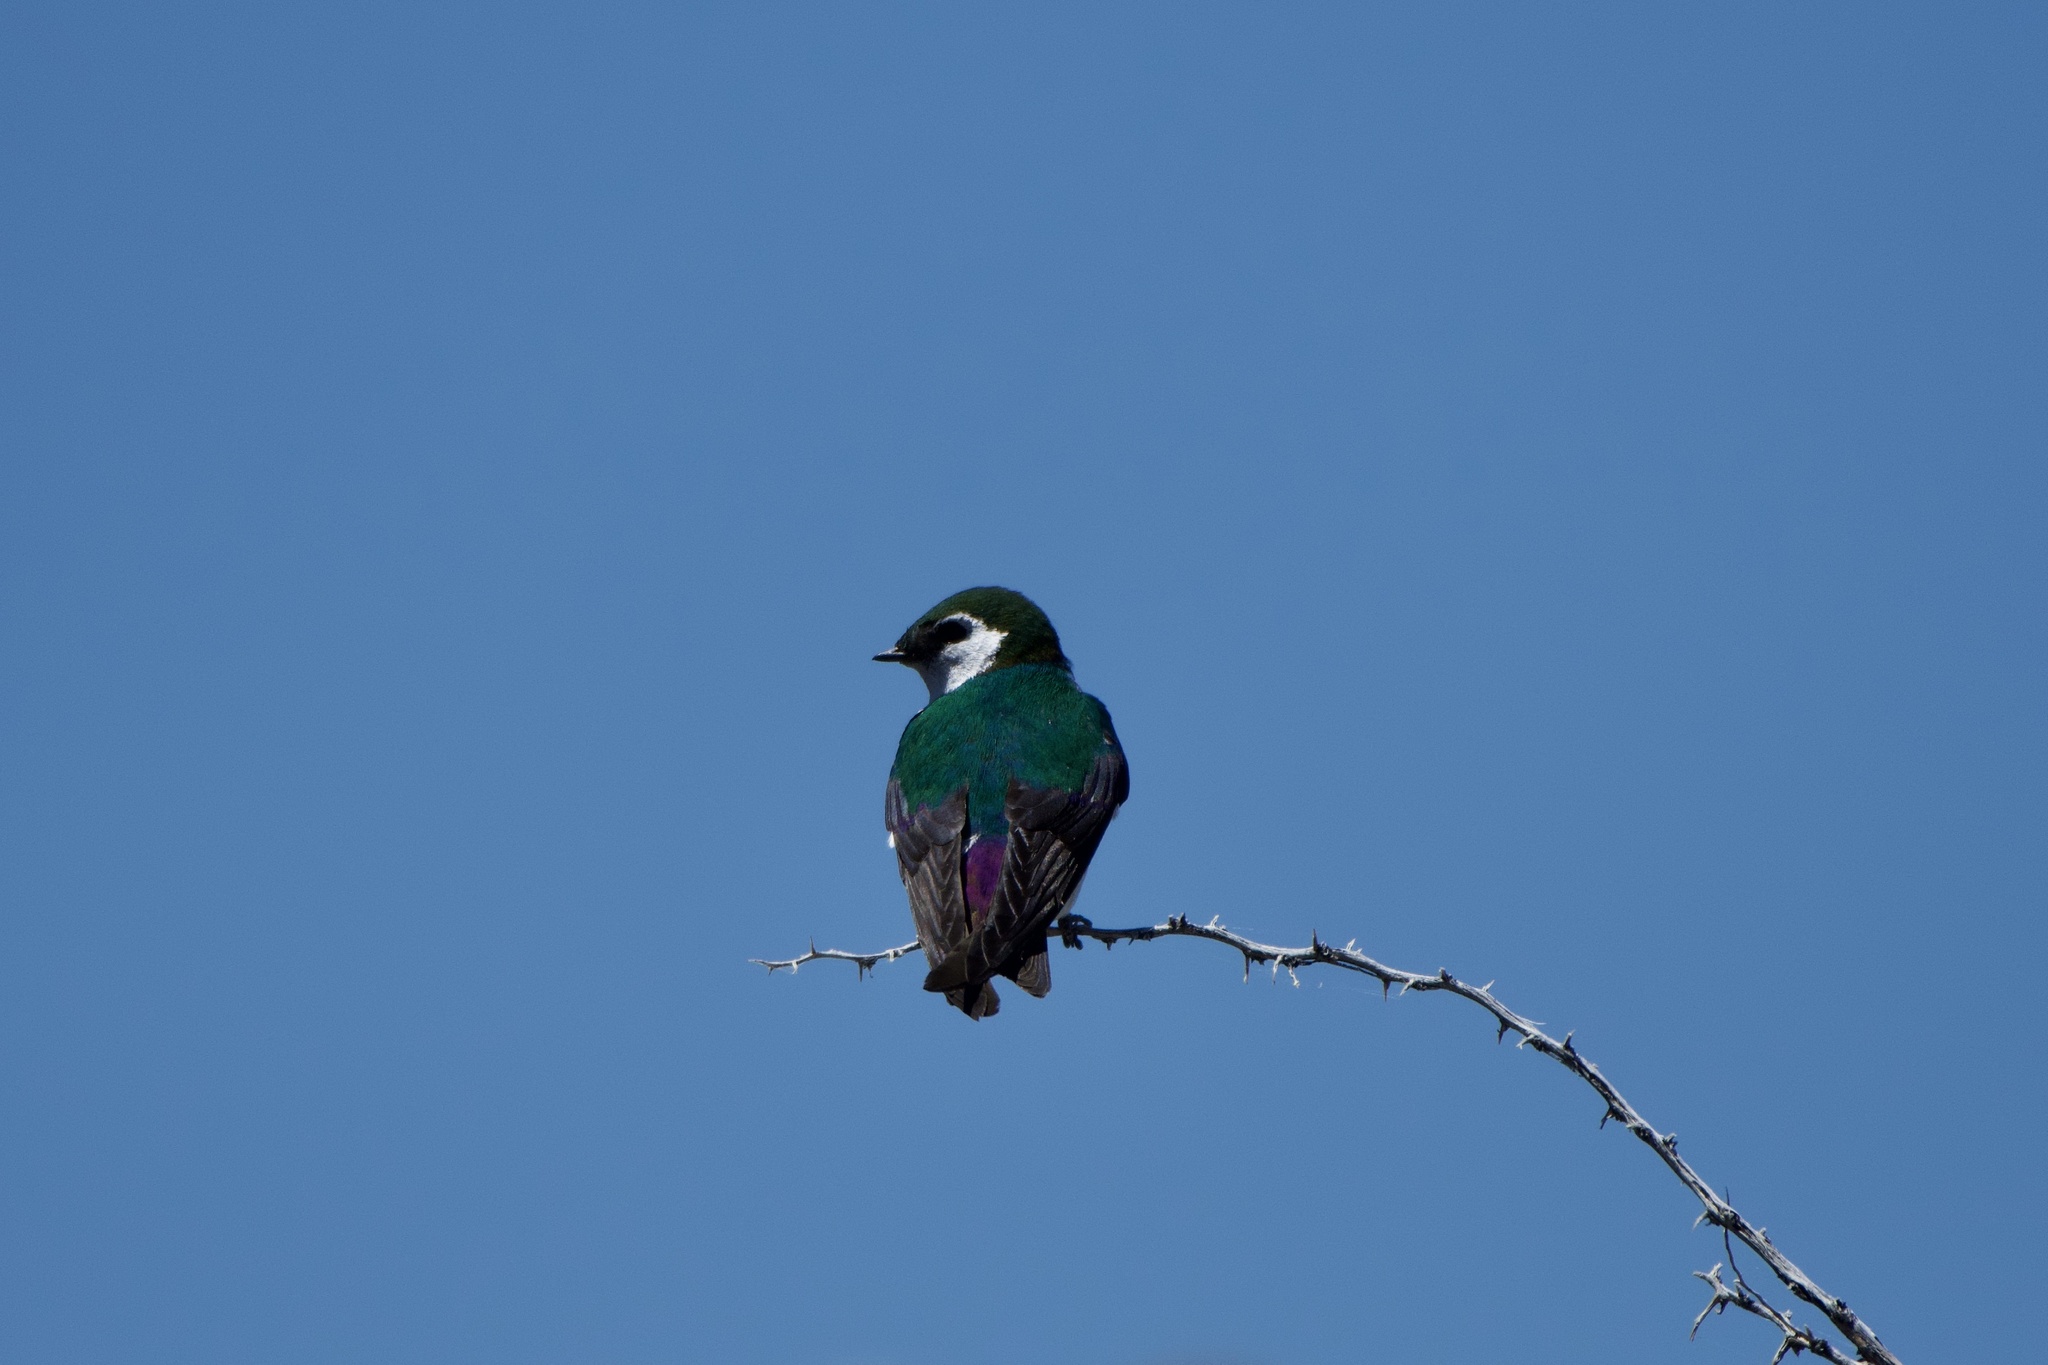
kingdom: Animalia
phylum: Chordata
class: Aves
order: Passeriformes
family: Hirundinidae
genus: Tachycineta
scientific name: Tachycineta thalassina
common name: Violet-green swallow
